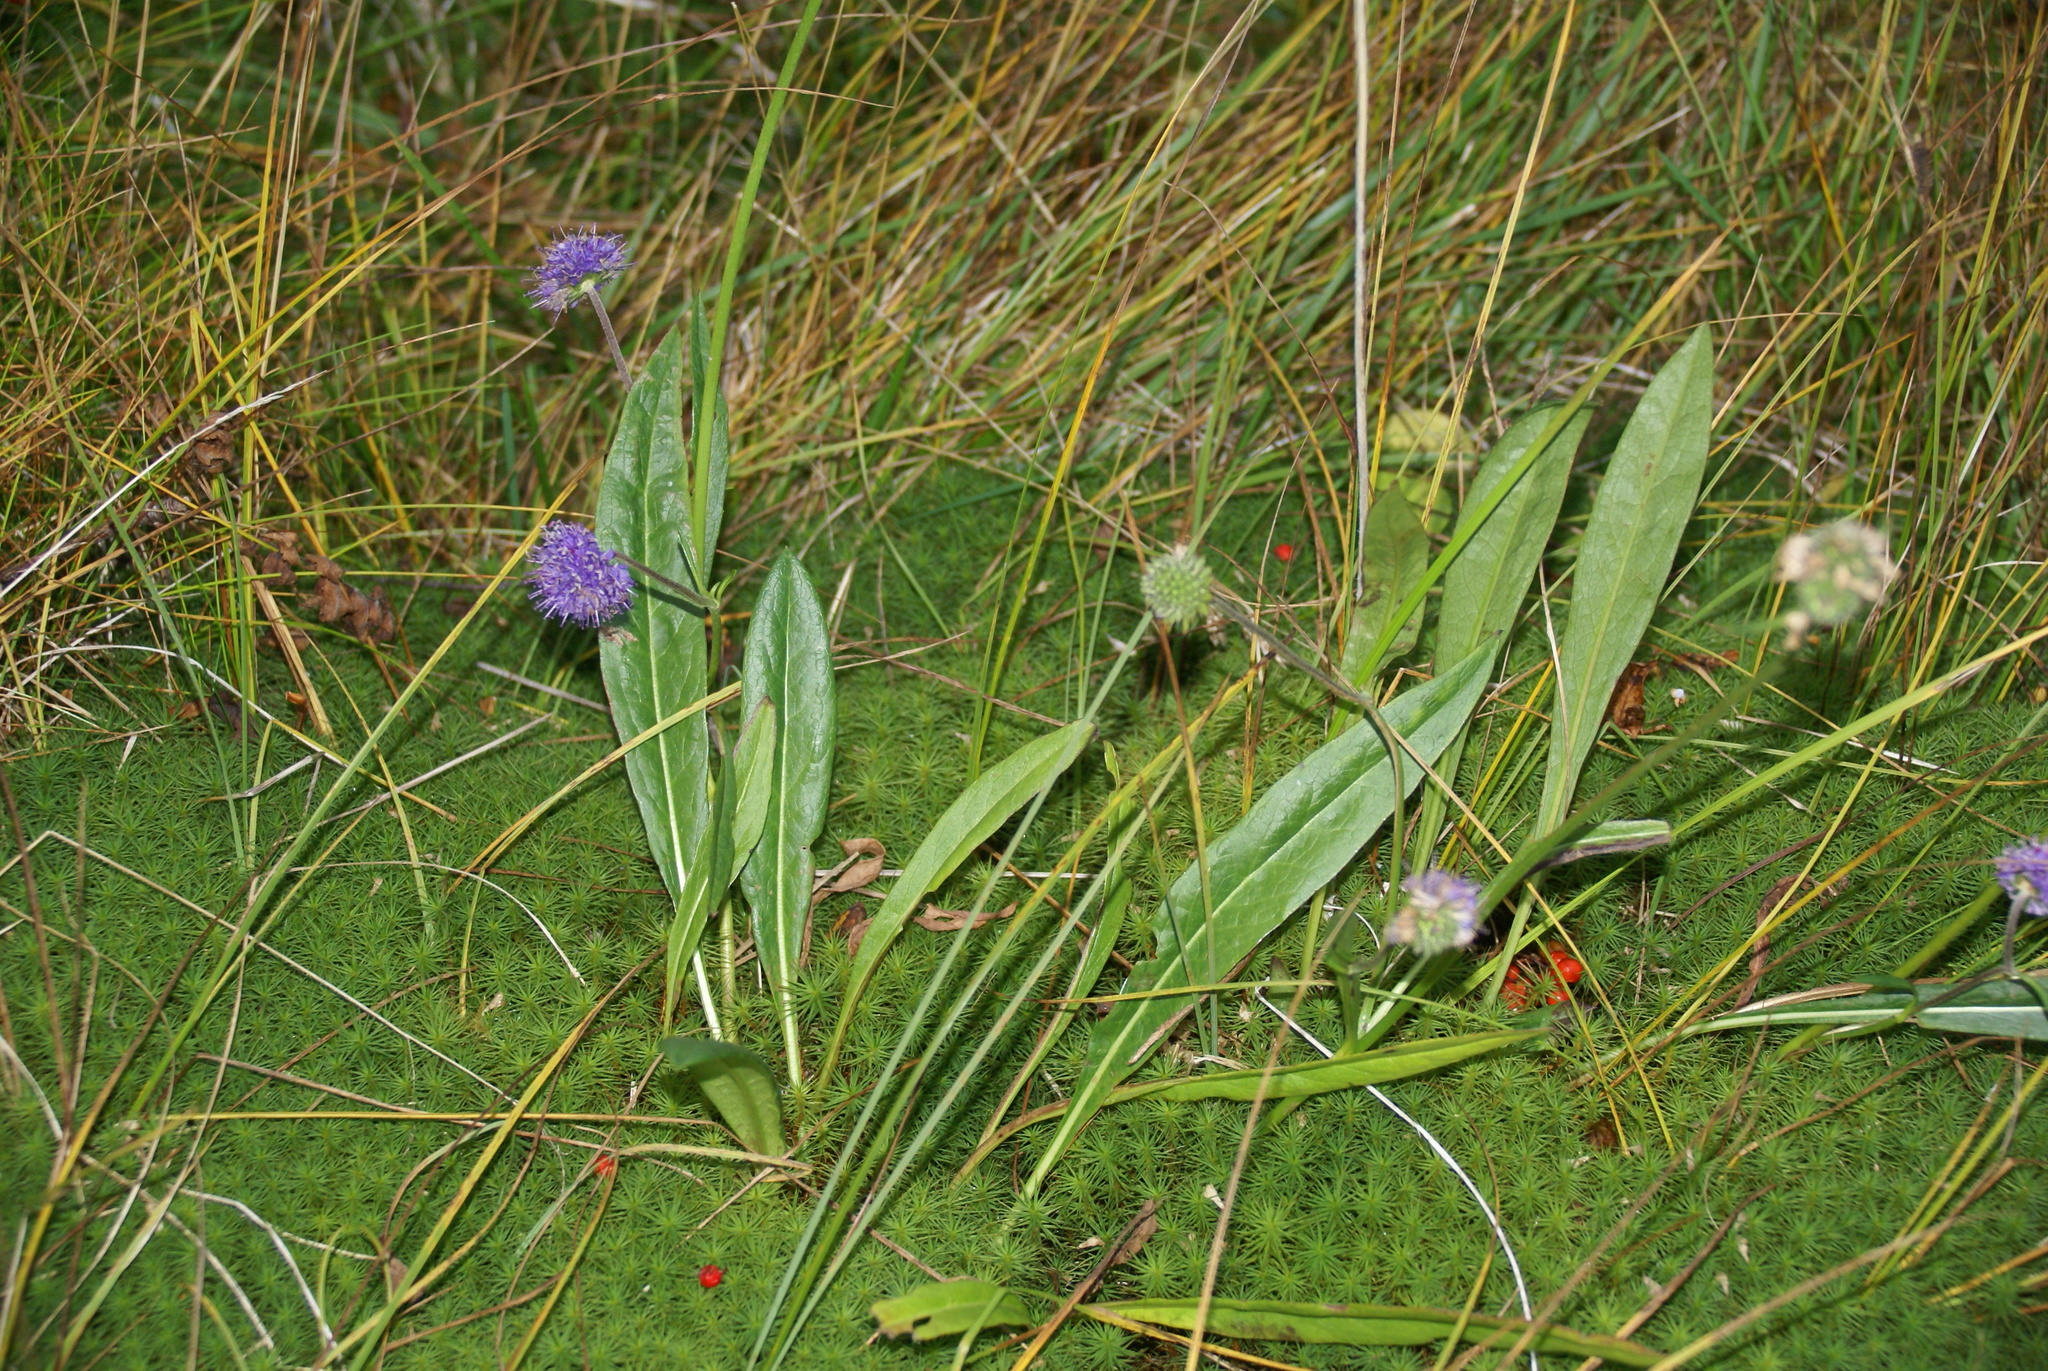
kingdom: Plantae
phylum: Tracheophyta
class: Magnoliopsida
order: Dipsacales
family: Caprifoliaceae
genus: Succisa
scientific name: Succisa pratensis
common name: Devil's-bit
